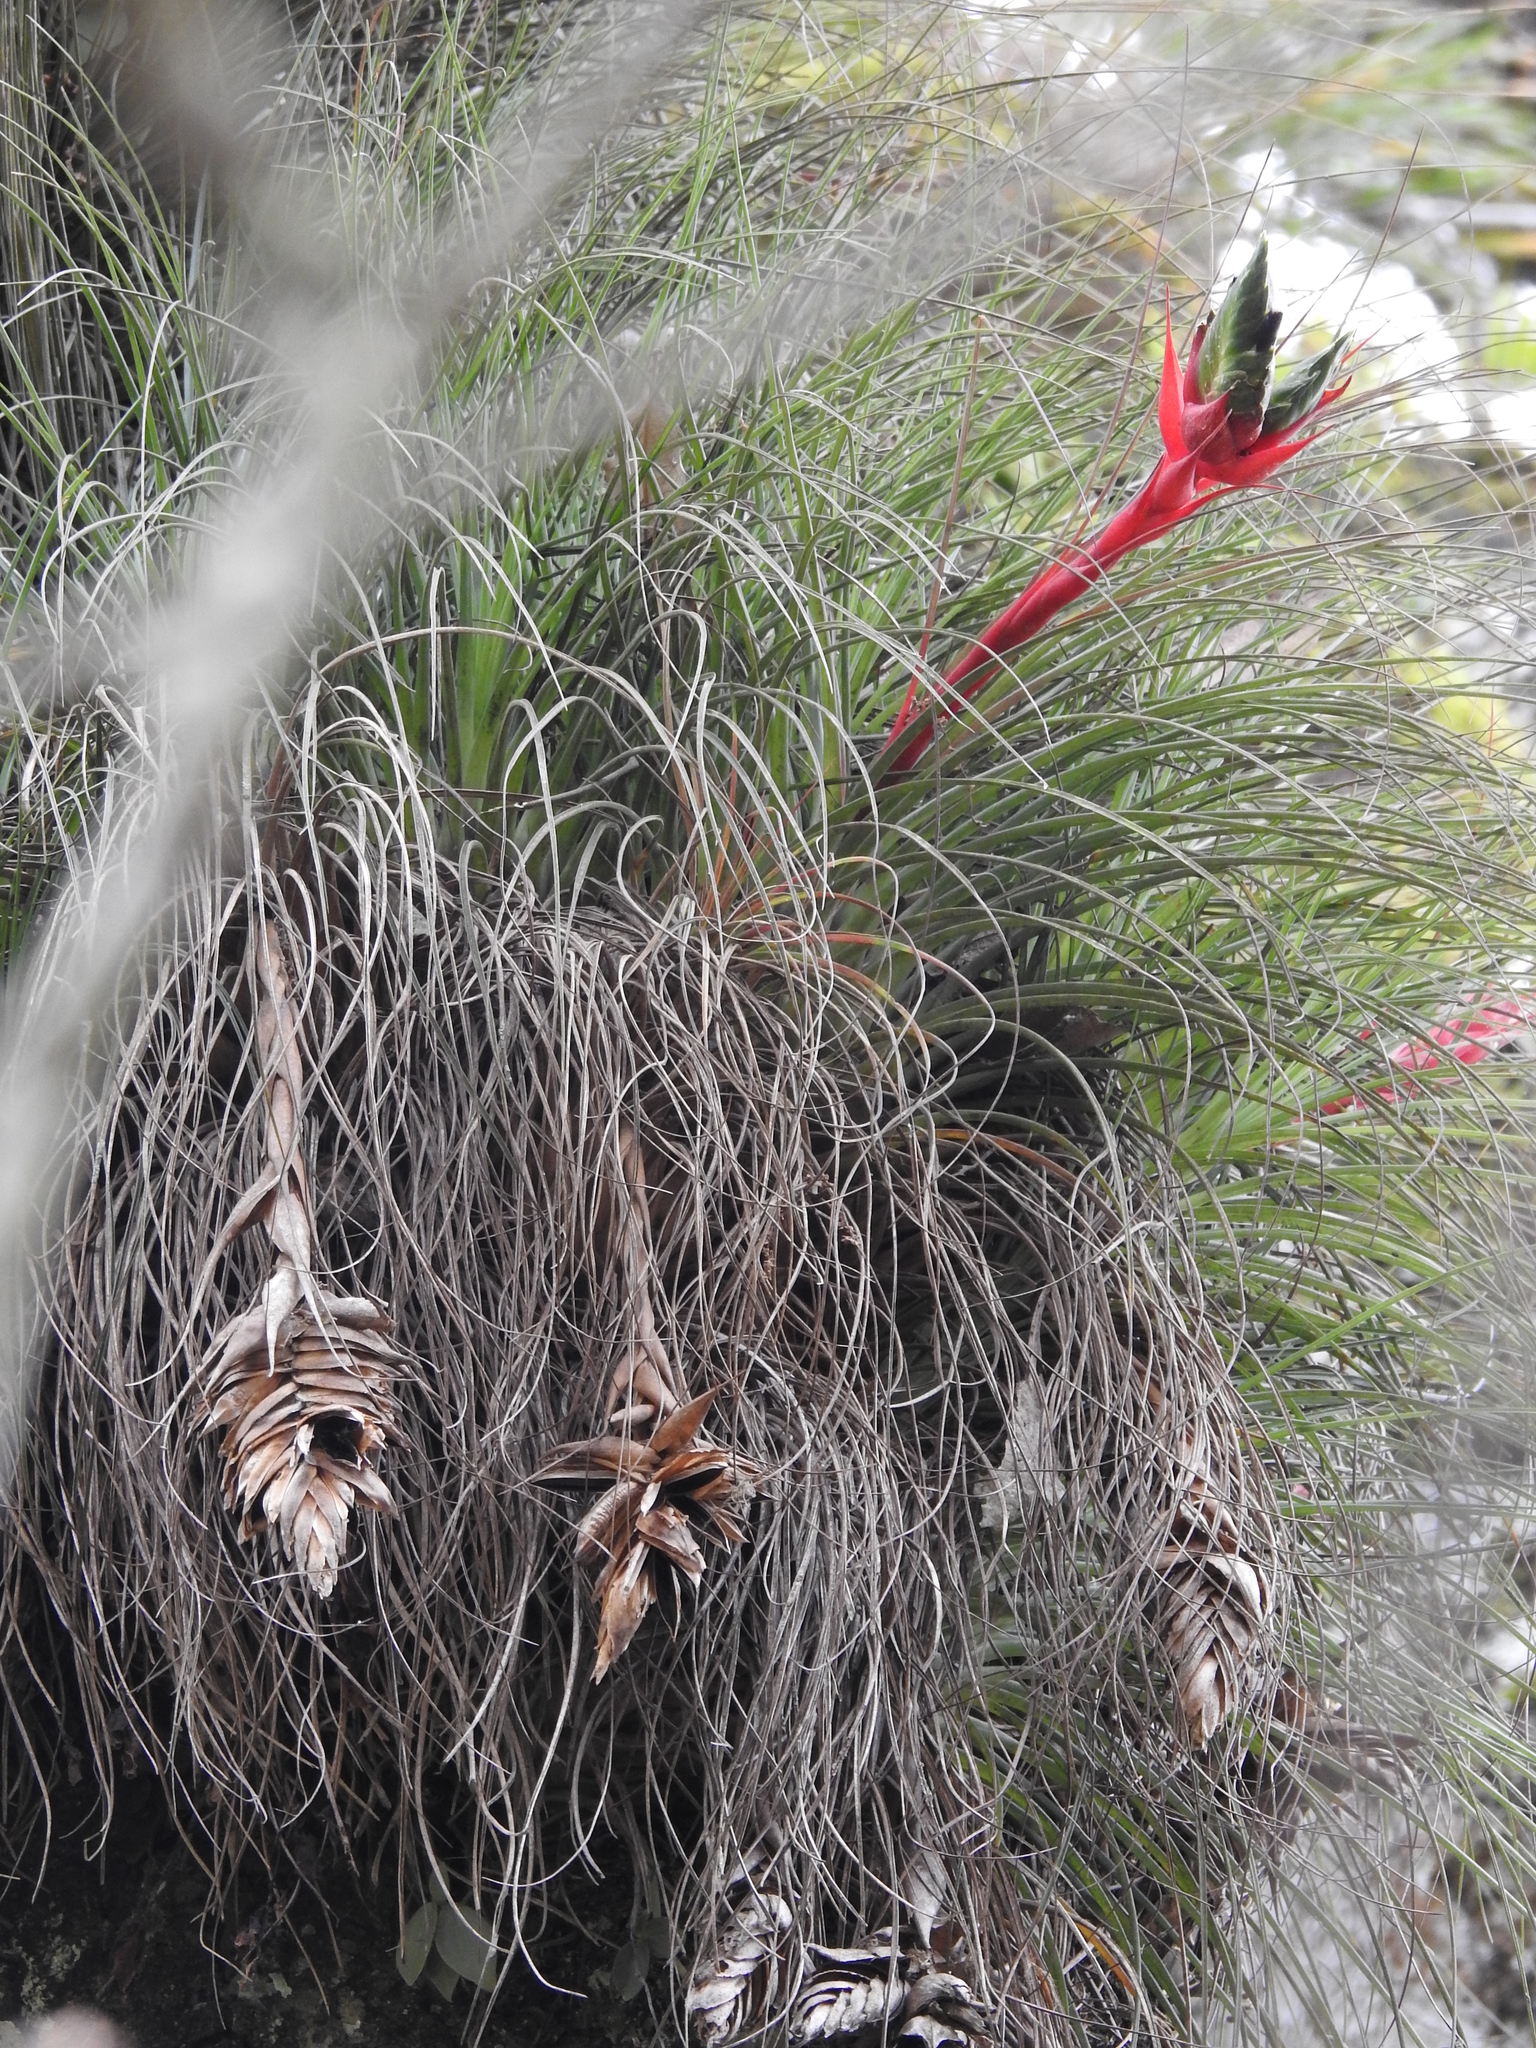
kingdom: Plantae
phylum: Tracheophyta
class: Liliopsida
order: Poales
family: Bromeliaceae
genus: Tillandsia
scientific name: Tillandsia punctulata
